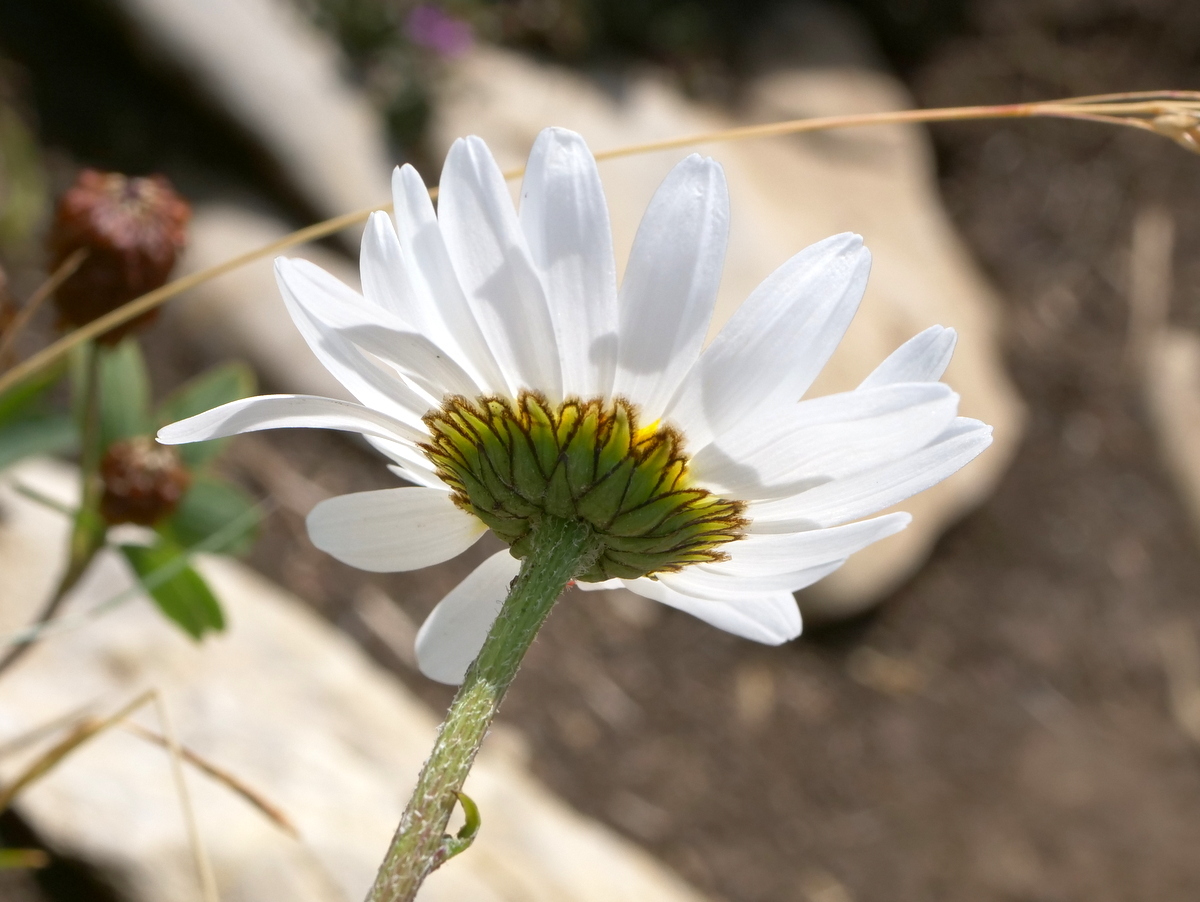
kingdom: Plantae
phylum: Tracheophyta
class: Magnoliopsida
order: Asterales
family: Asteraceae
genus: Leucanthemum
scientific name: Leucanthemum vulgare
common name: Oxeye daisy
